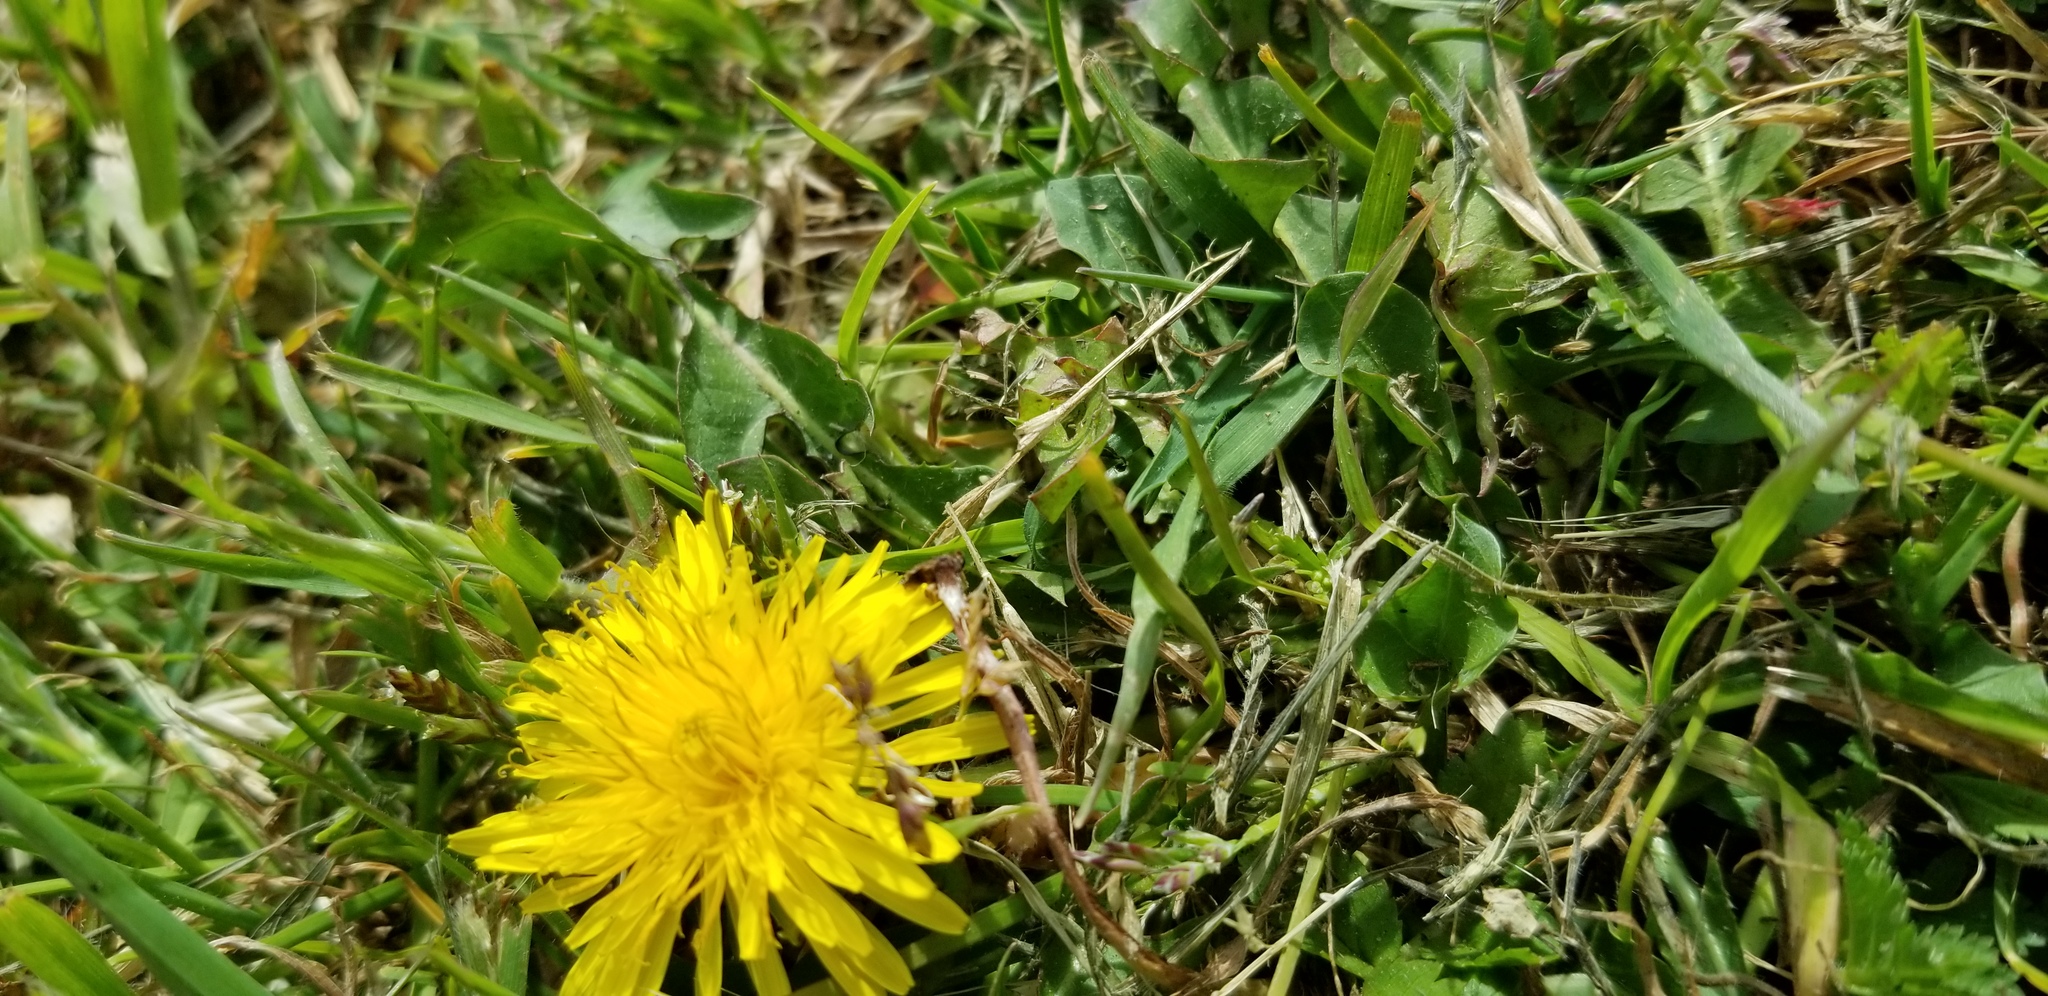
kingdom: Plantae
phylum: Tracheophyta
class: Magnoliopsida
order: Asterales
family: Asteraceae
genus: Taraxacum
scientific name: Taraxacum officinale
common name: Common dandelion
